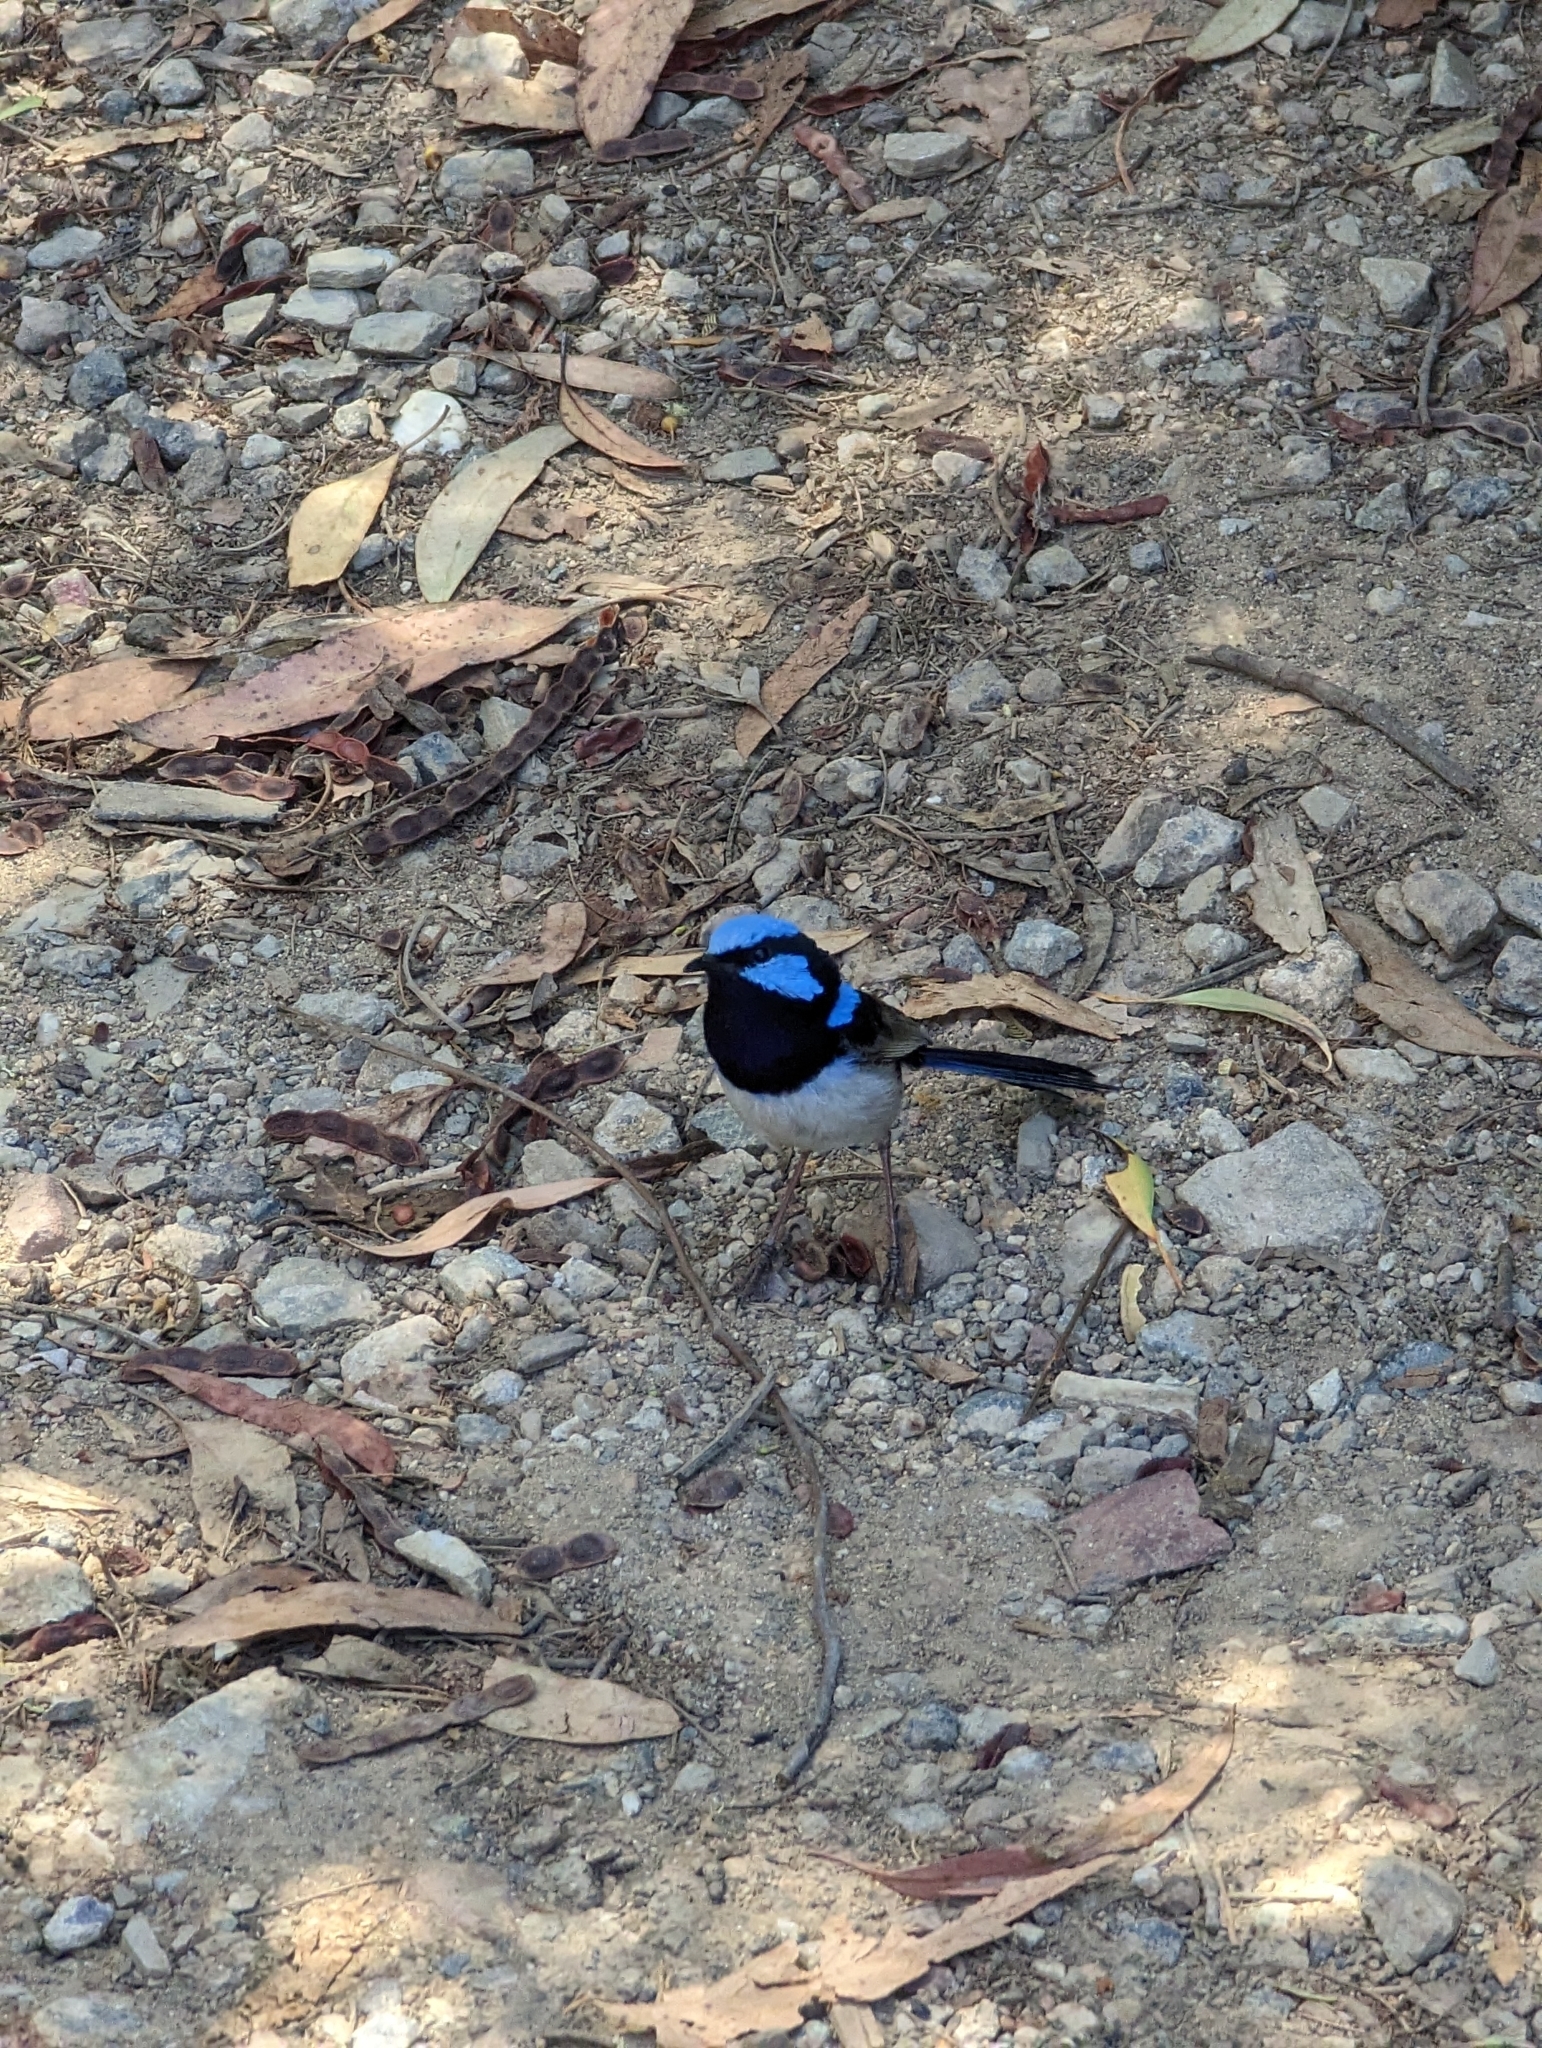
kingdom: Animalia
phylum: Chordata
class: Aves
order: Passeriformes
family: Maluridae
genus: Malurus
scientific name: Malurus cyaneus
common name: Superb fairywren
